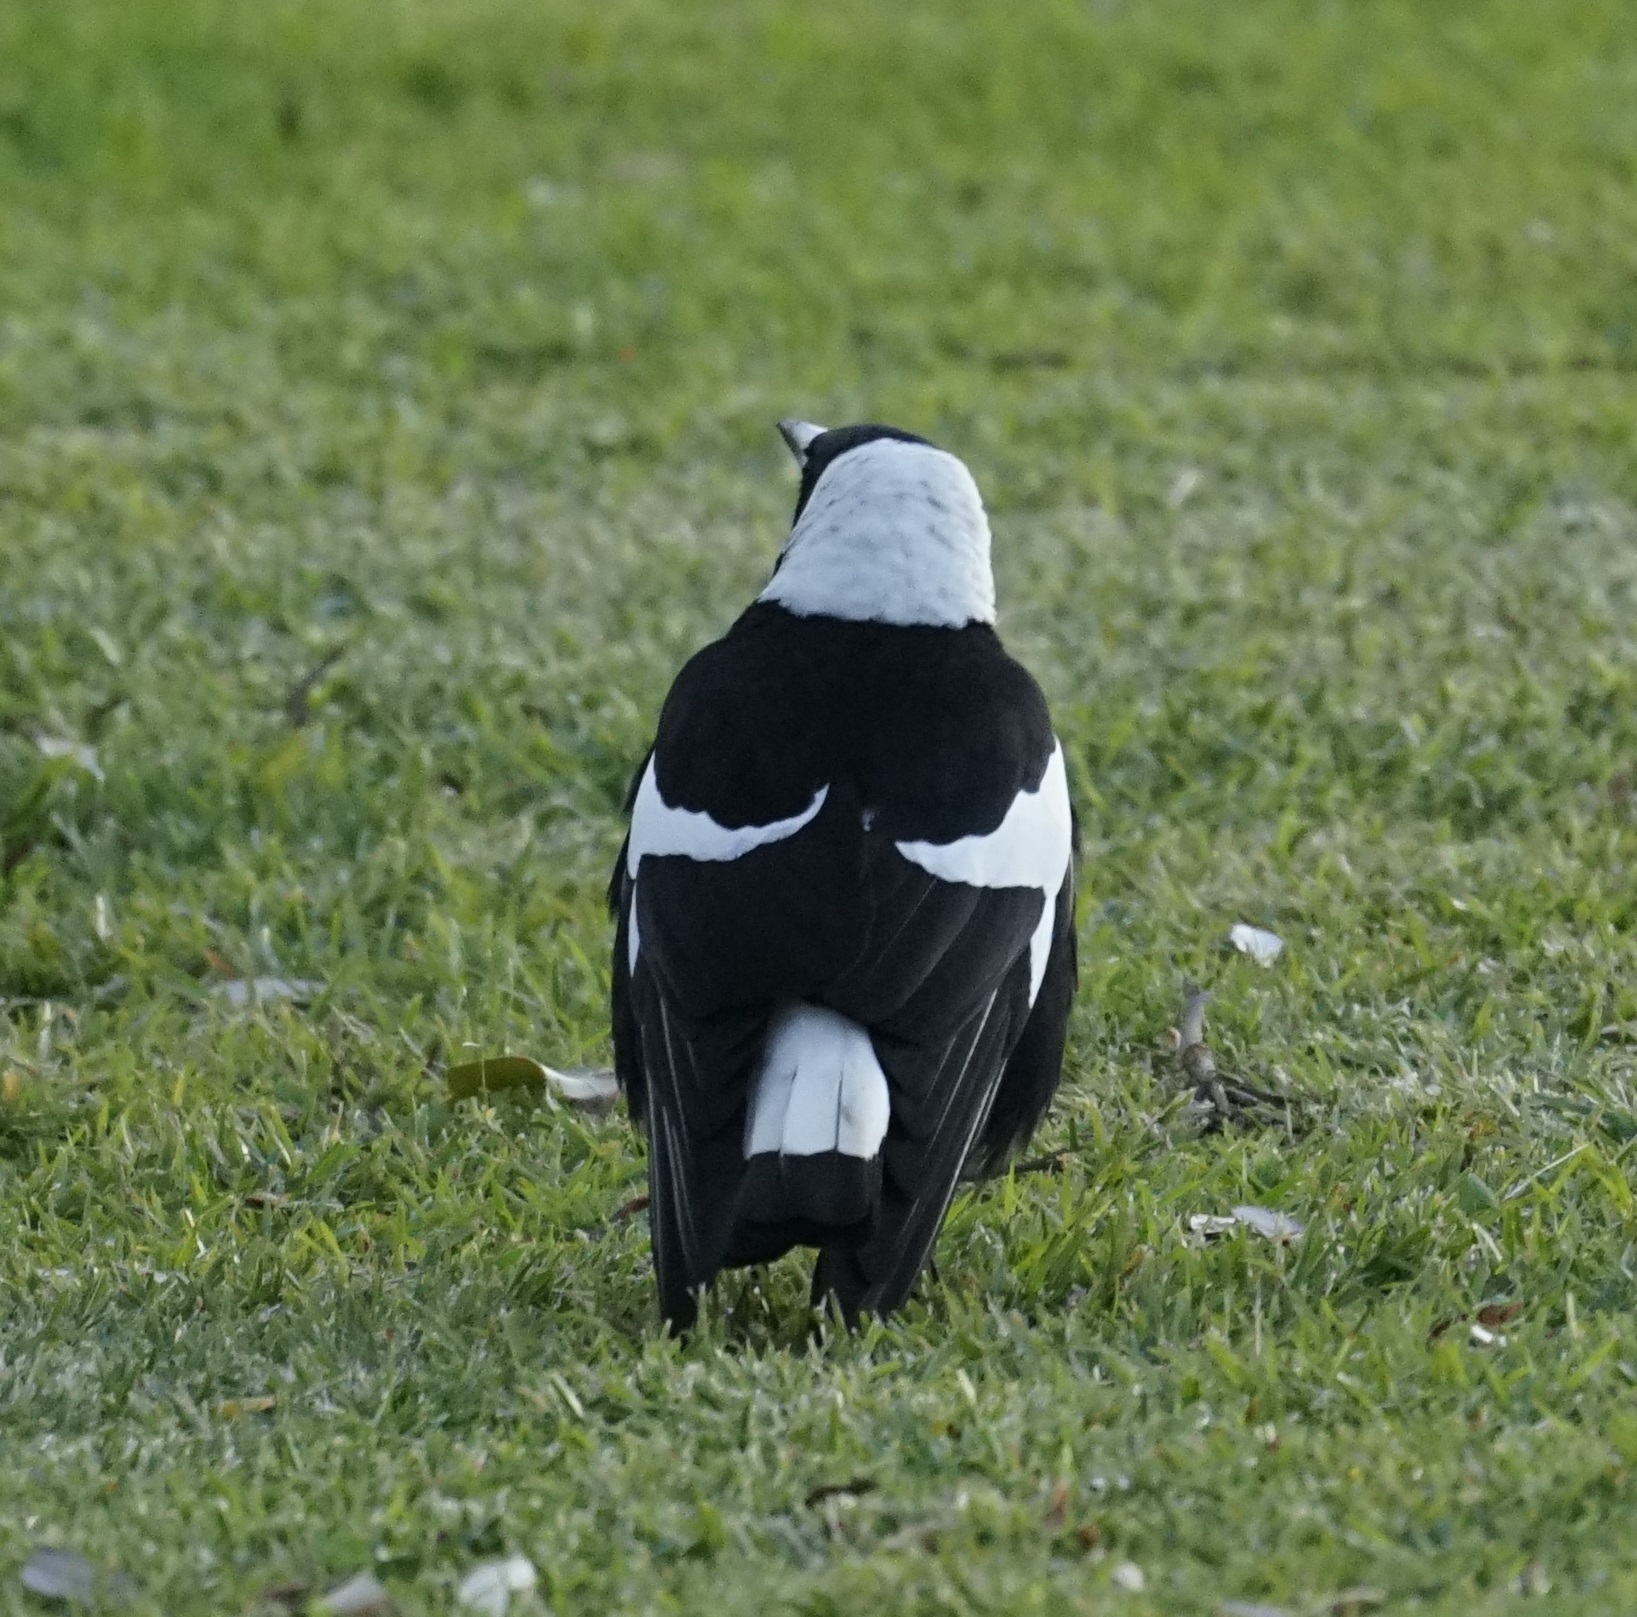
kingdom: Animalia
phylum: Chordata
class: Aves
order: Passeriformes
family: Cracticidae
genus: Gymnorhina
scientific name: Gymnorhina tibicen
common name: Australian magpie
